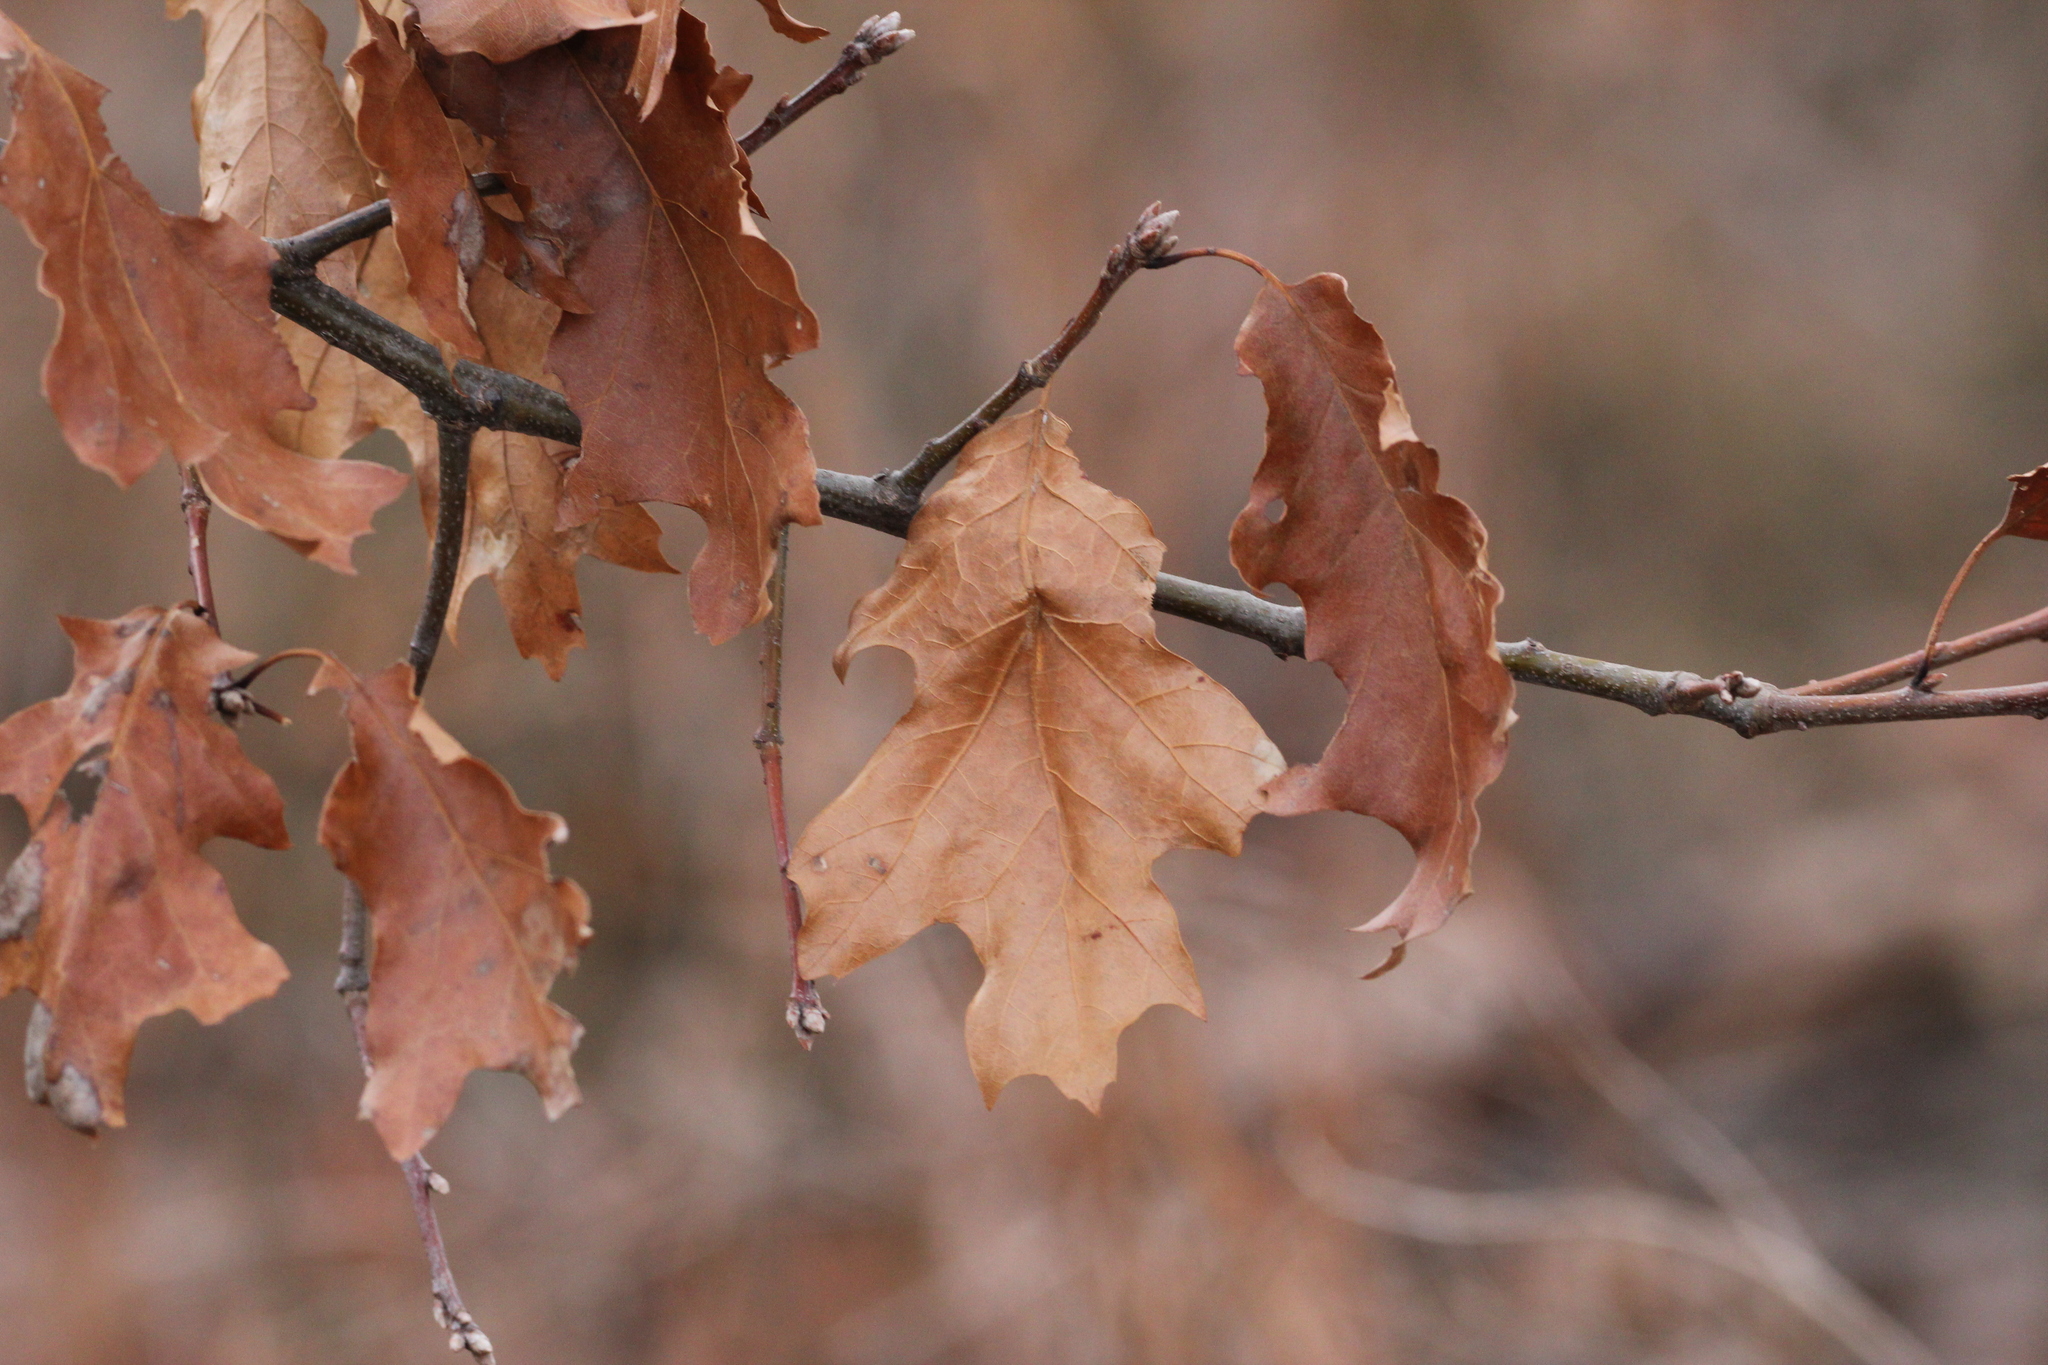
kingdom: Plantae
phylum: Tracheophyta
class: Magnoliopsida
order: Fagales
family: Fagaceae
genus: Quercus
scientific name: Quercus velutina
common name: Black oak
